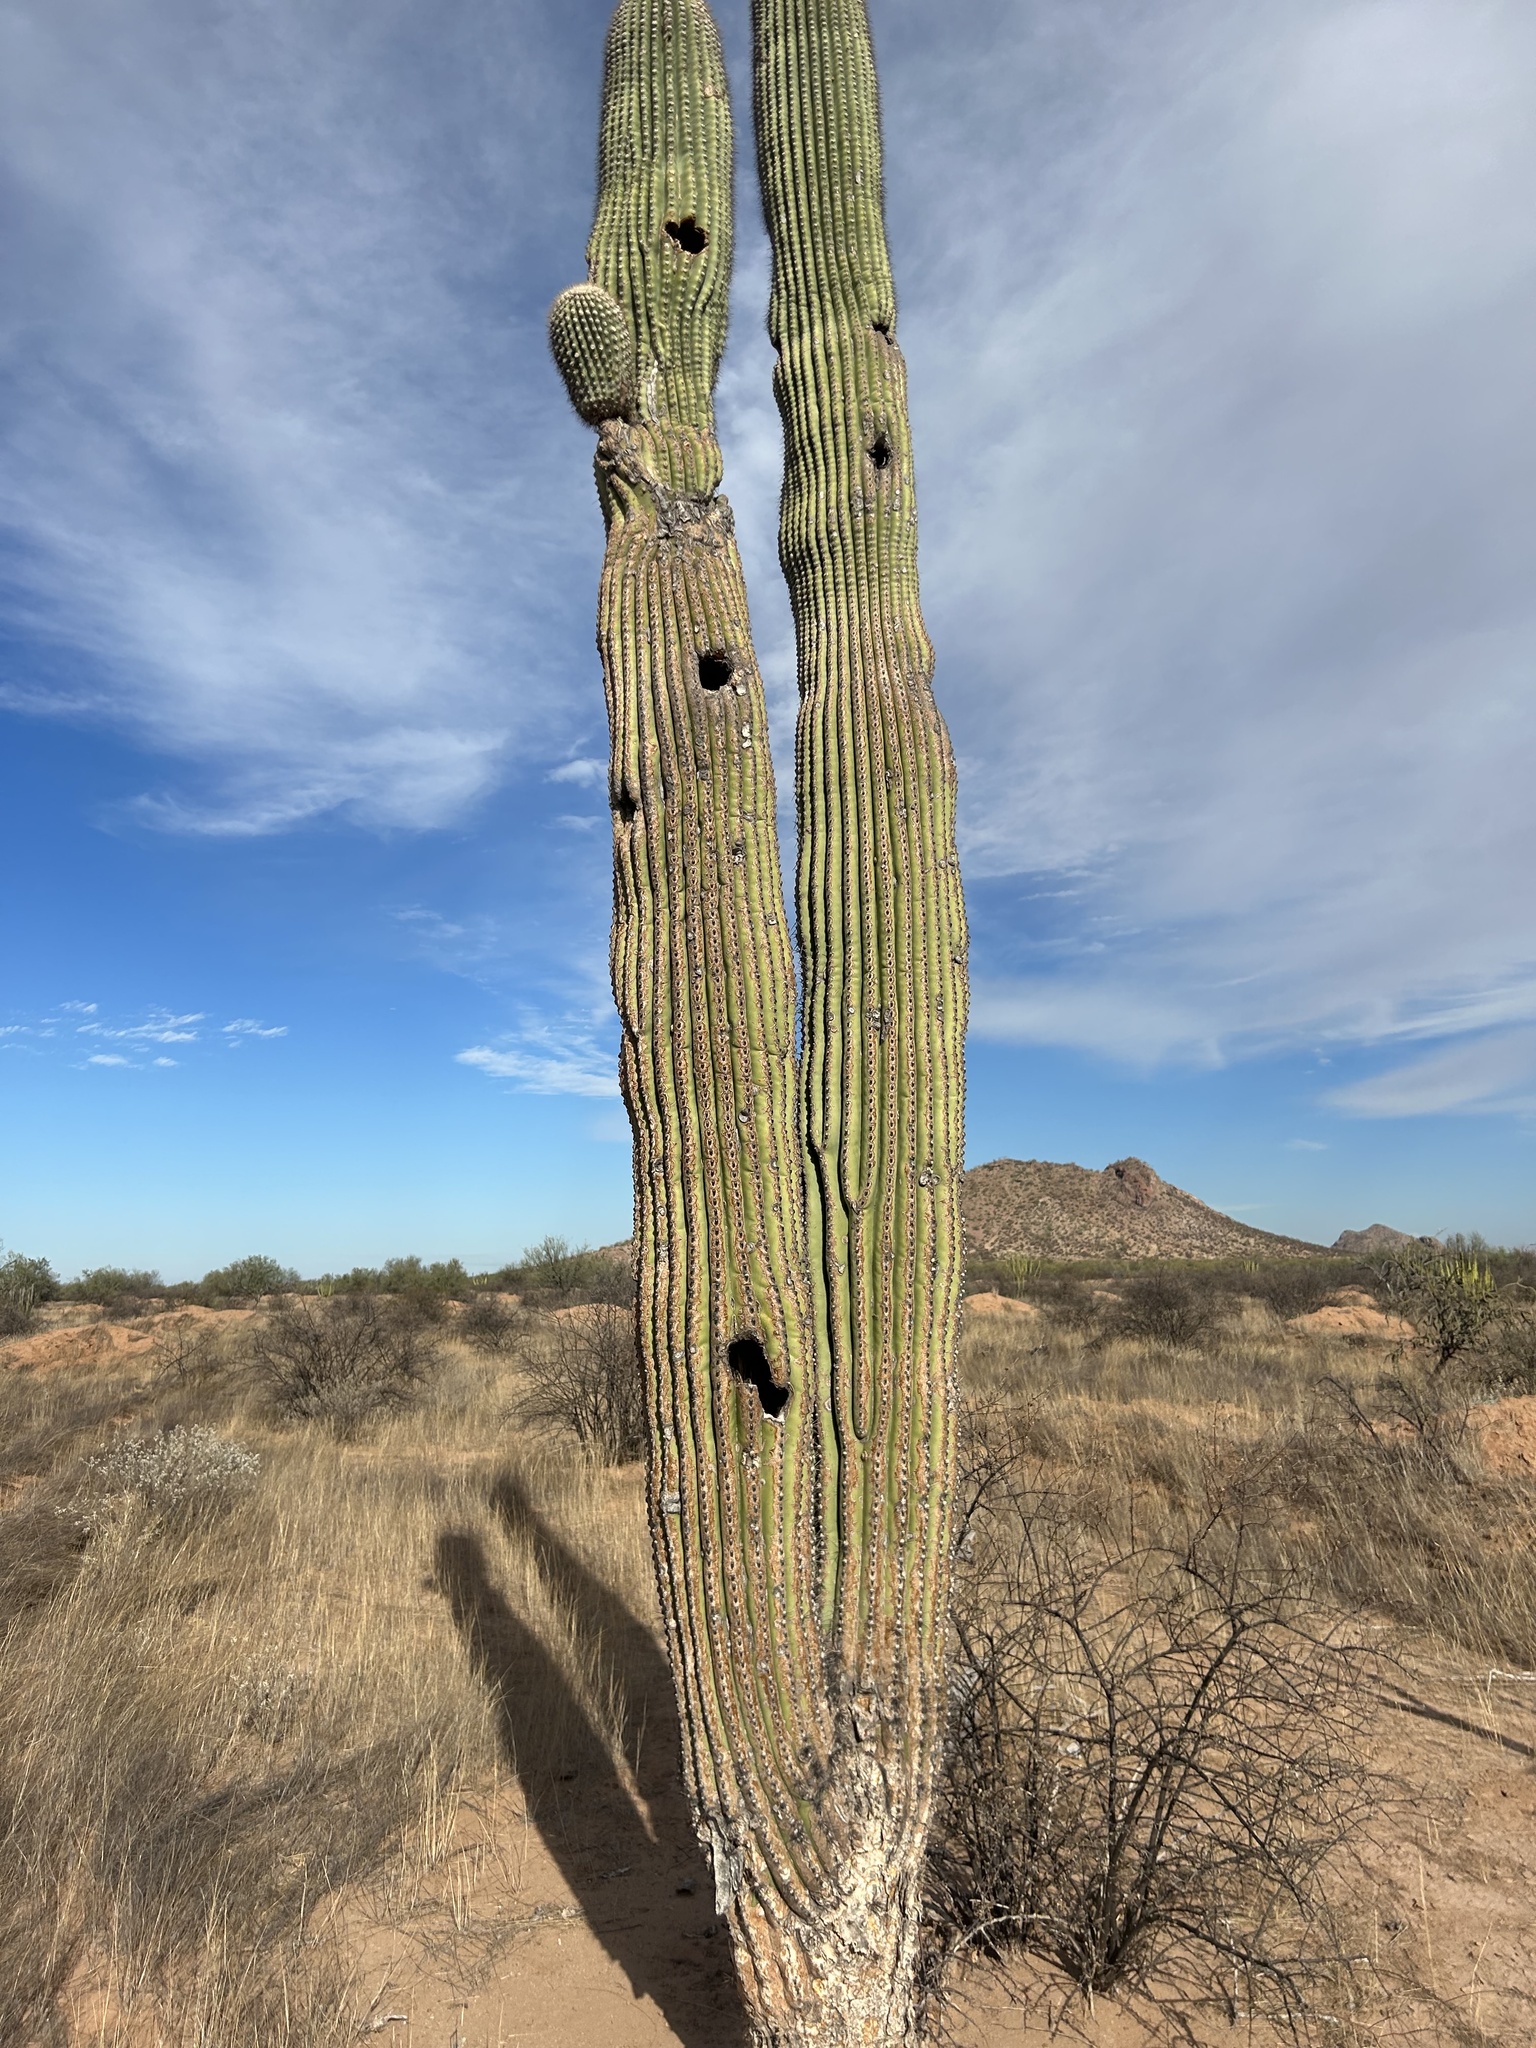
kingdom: Plantae
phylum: Tracheophyta
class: Magnoliopsida
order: Caryophyllales
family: Cactaceae
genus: Carnegiea
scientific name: Carnegiea gigantea
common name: Saguaro
